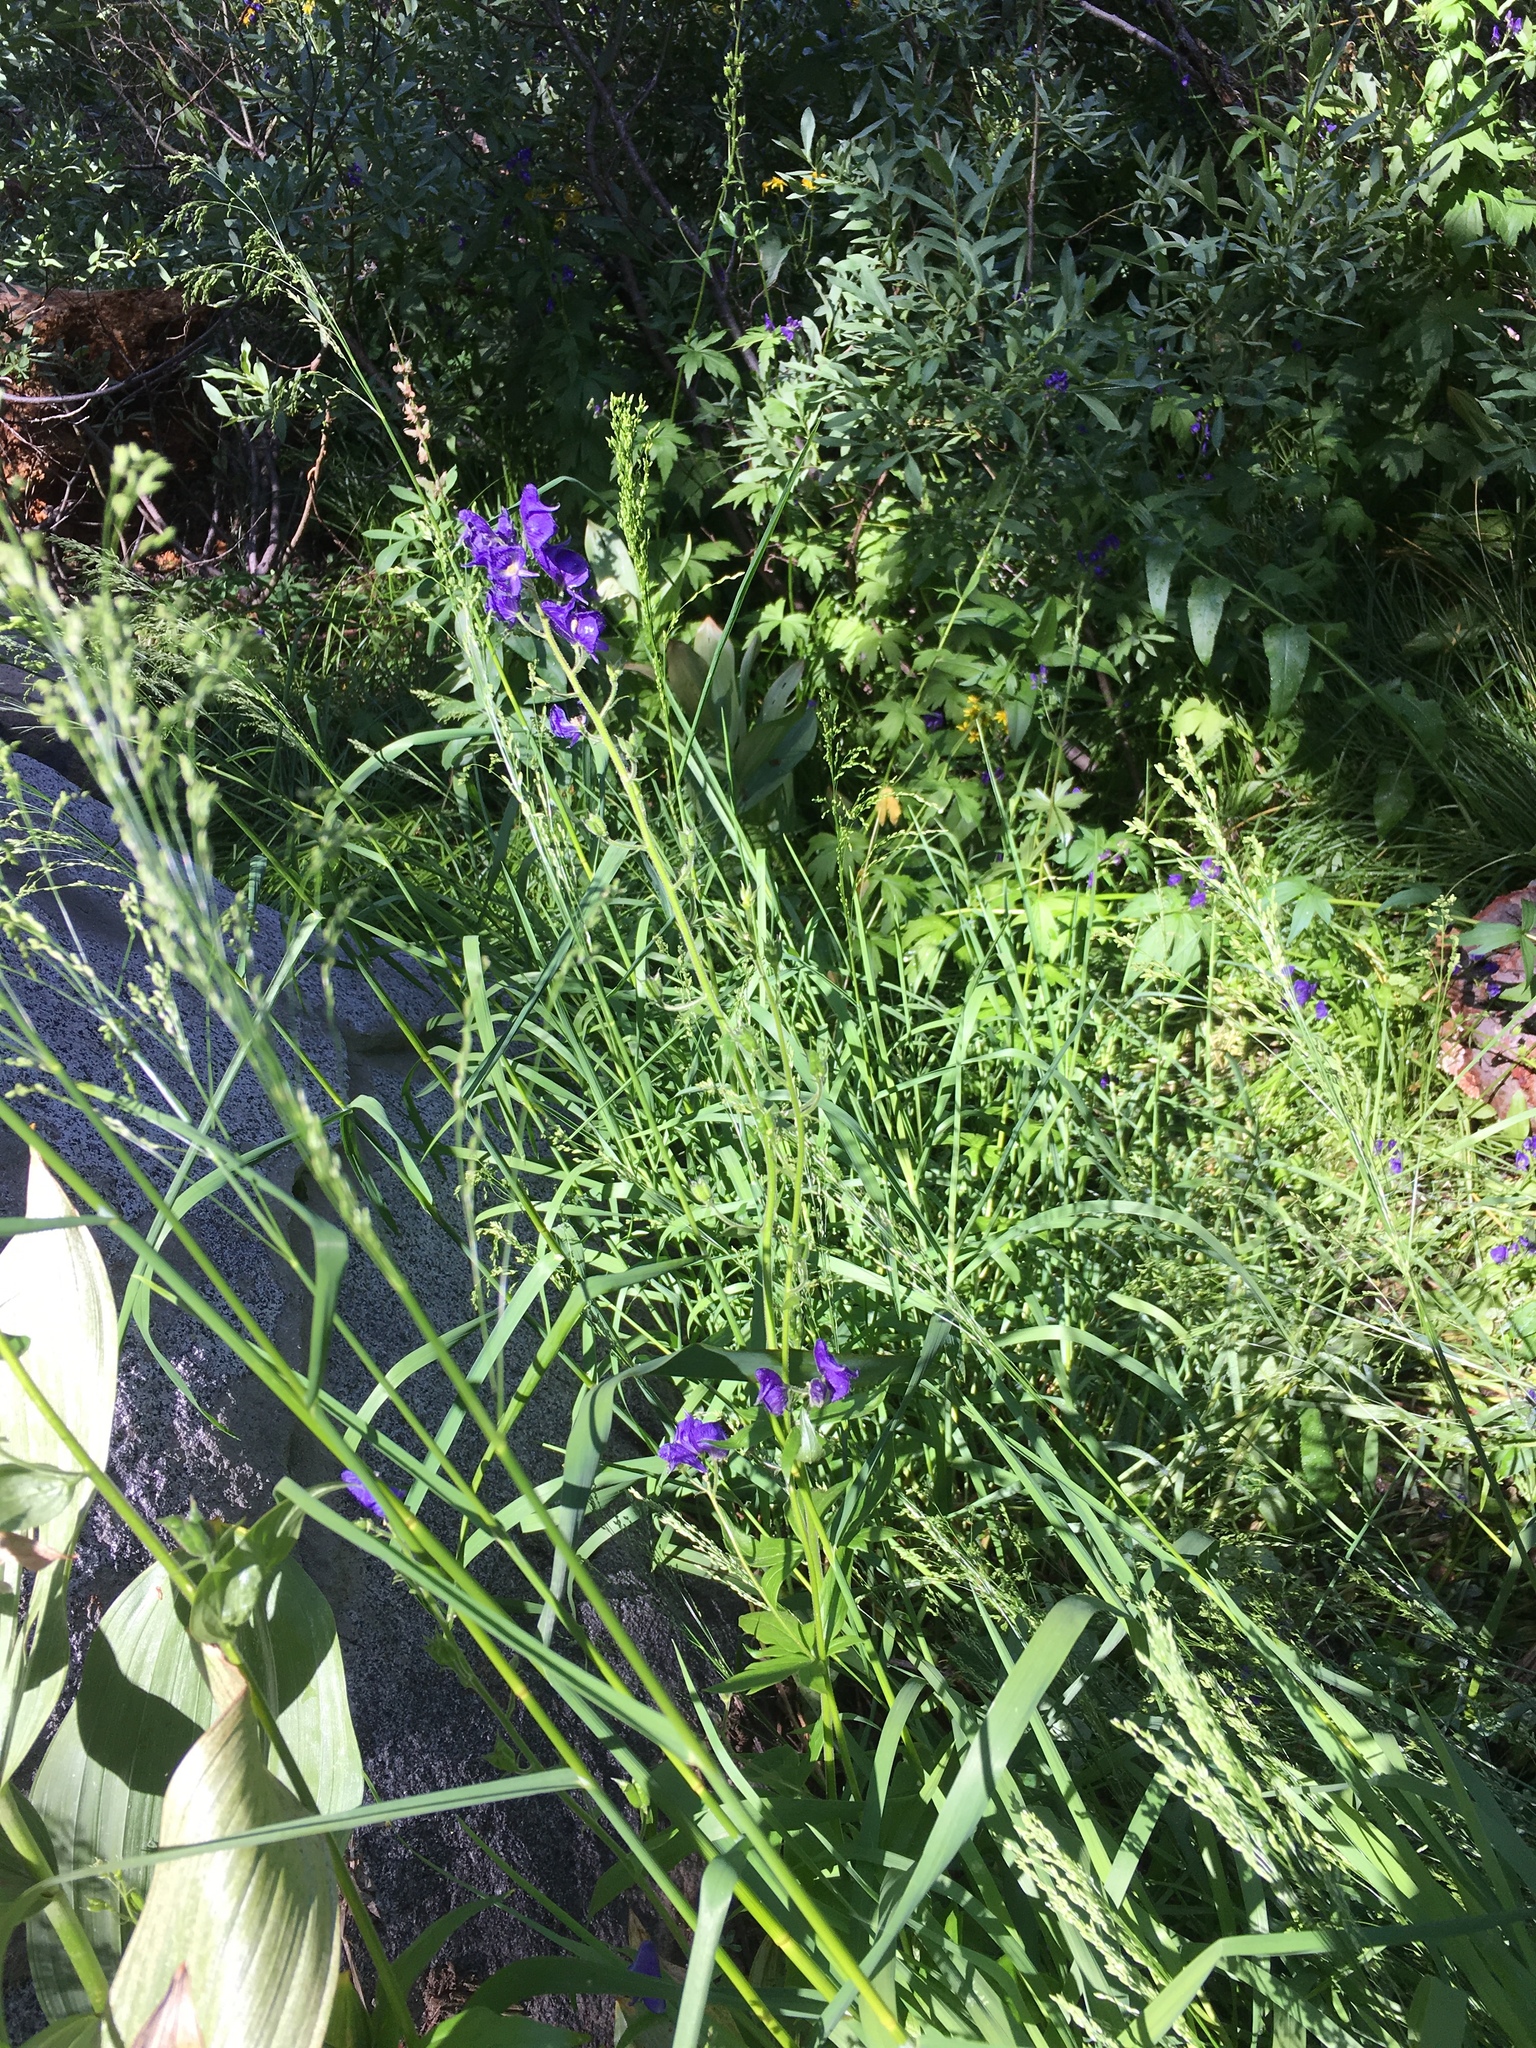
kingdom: Plantae
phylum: Tracheophyta
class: Magnoliopsida
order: Ranunculales
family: Ranunculaceae
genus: Aconitum
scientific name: Aconitum columbianum
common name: Columbia aconite
